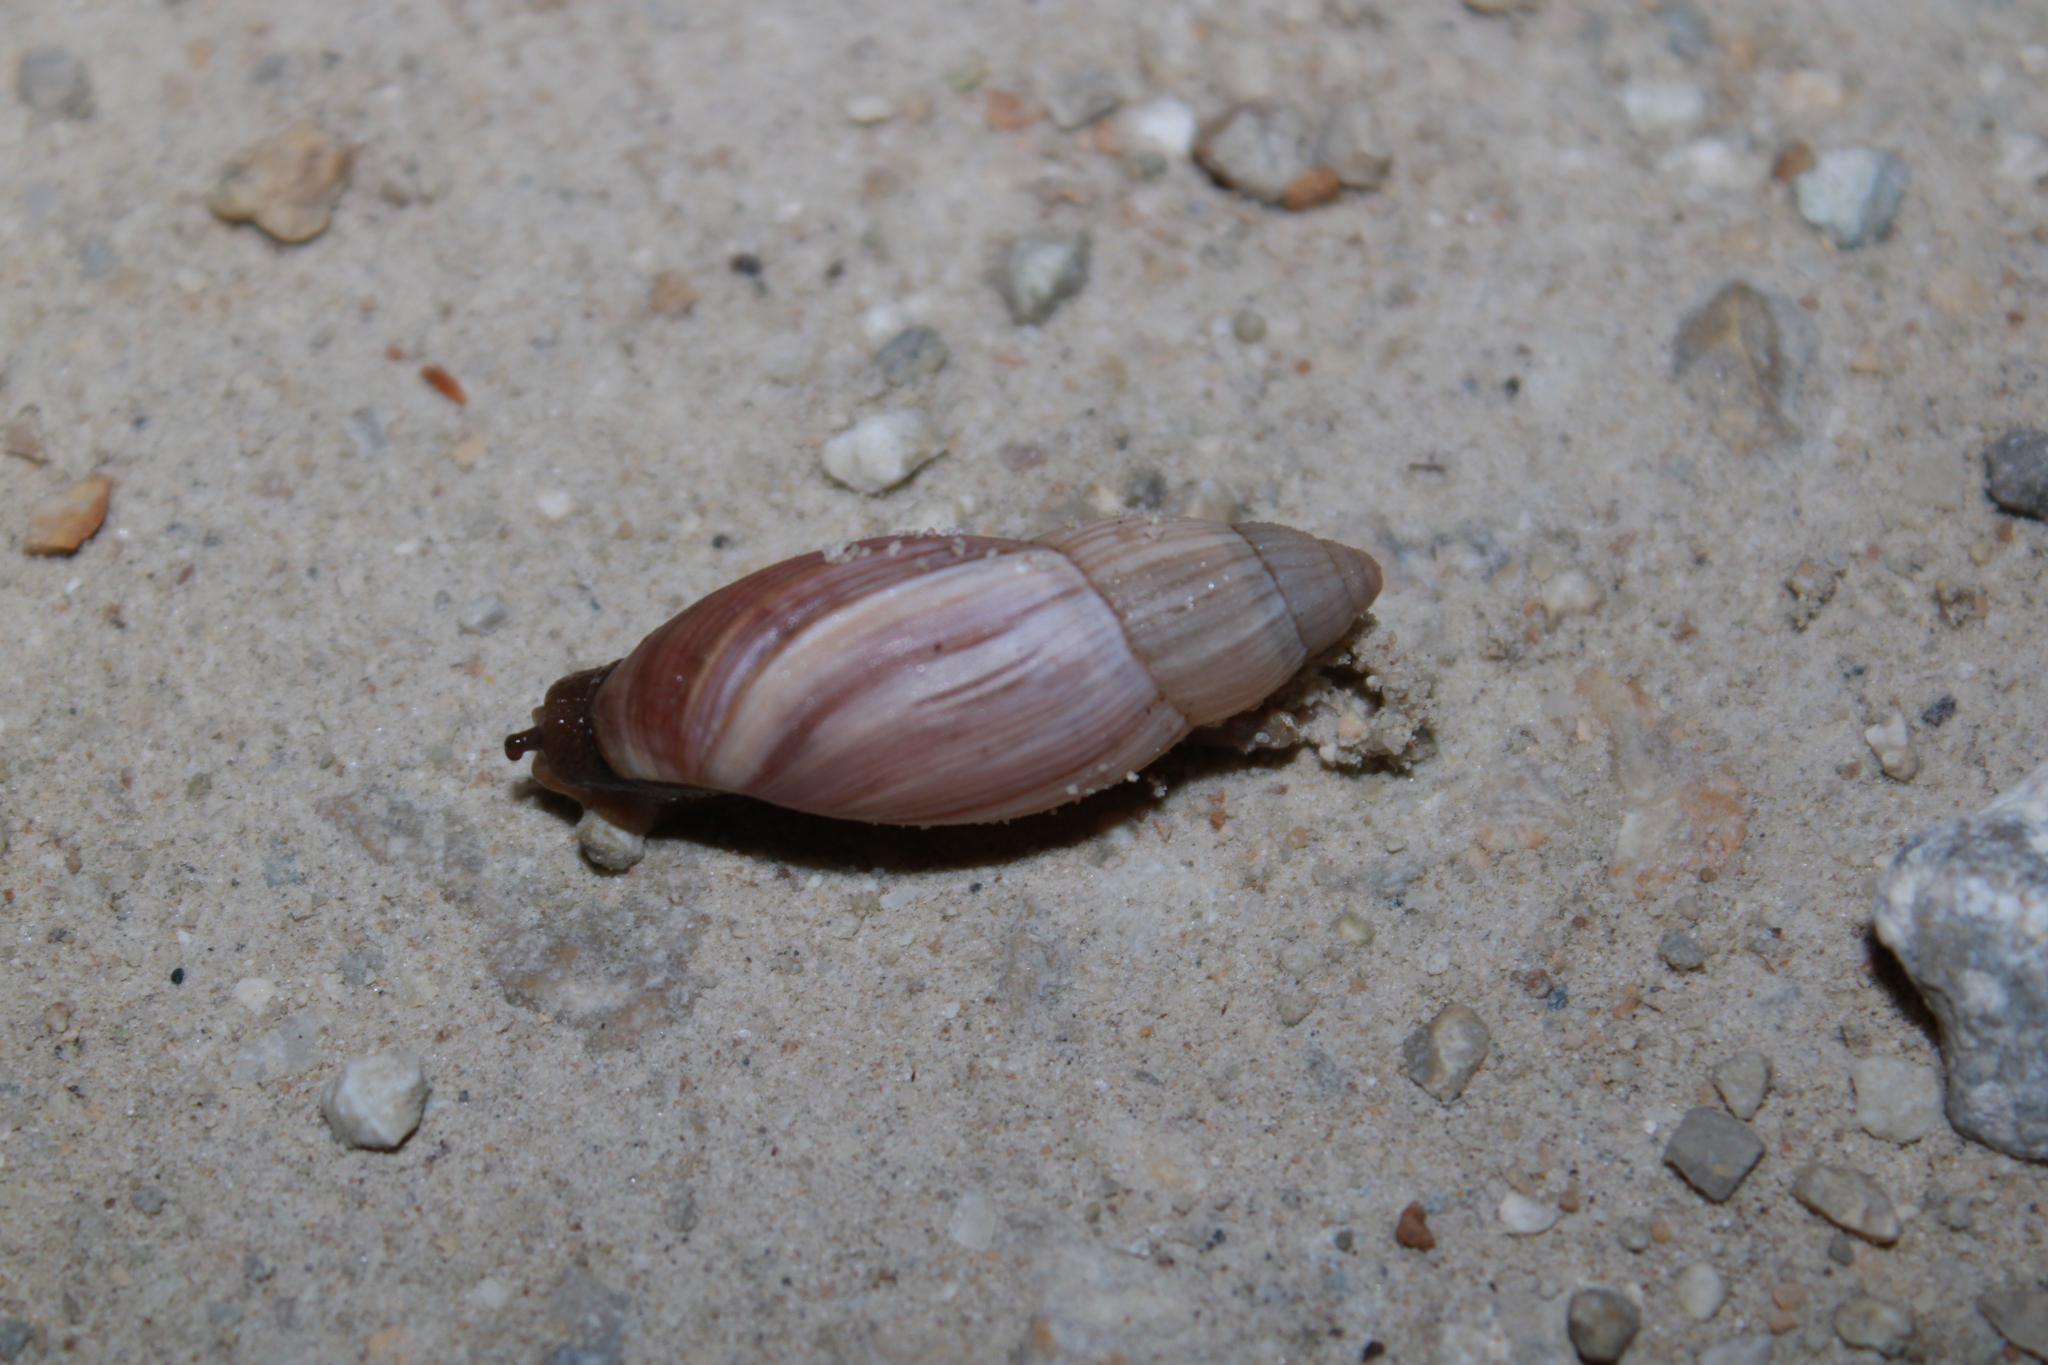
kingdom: Animalia
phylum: Mollusca
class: Gastropoda
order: Stylommatophora
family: Spiraxidae
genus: Euglandina
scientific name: Euglandina rosea
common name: Rosy wolfsnail
